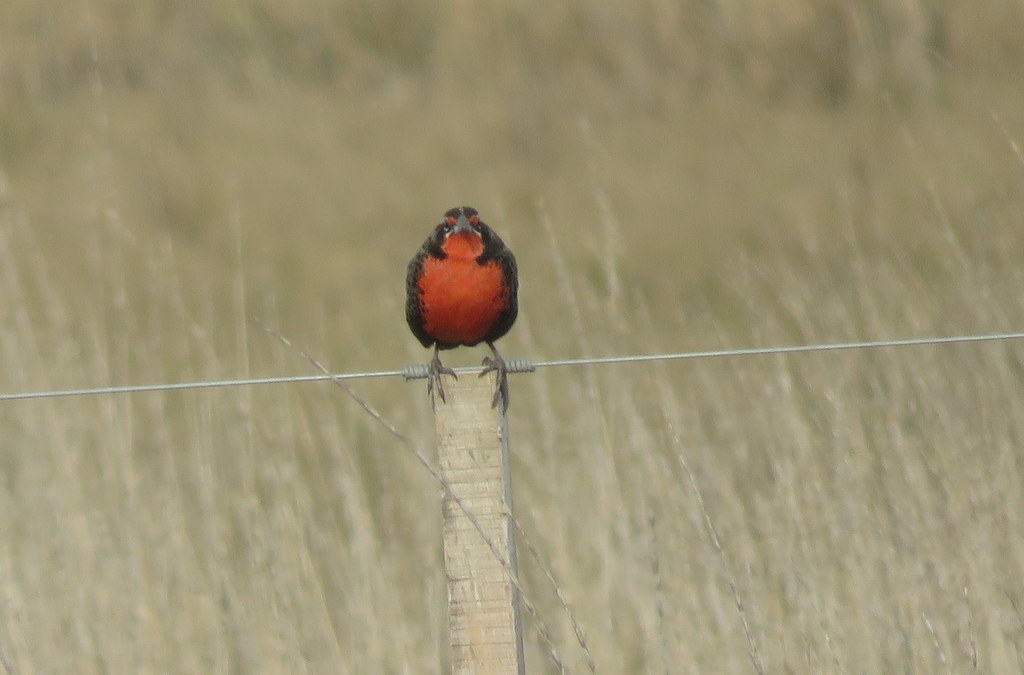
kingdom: Animalia
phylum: Chordata
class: Aves
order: Passeriformes
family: Icteridae
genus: Sturnella
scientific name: Sturnella loyca
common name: Long-tailed meadowlark
